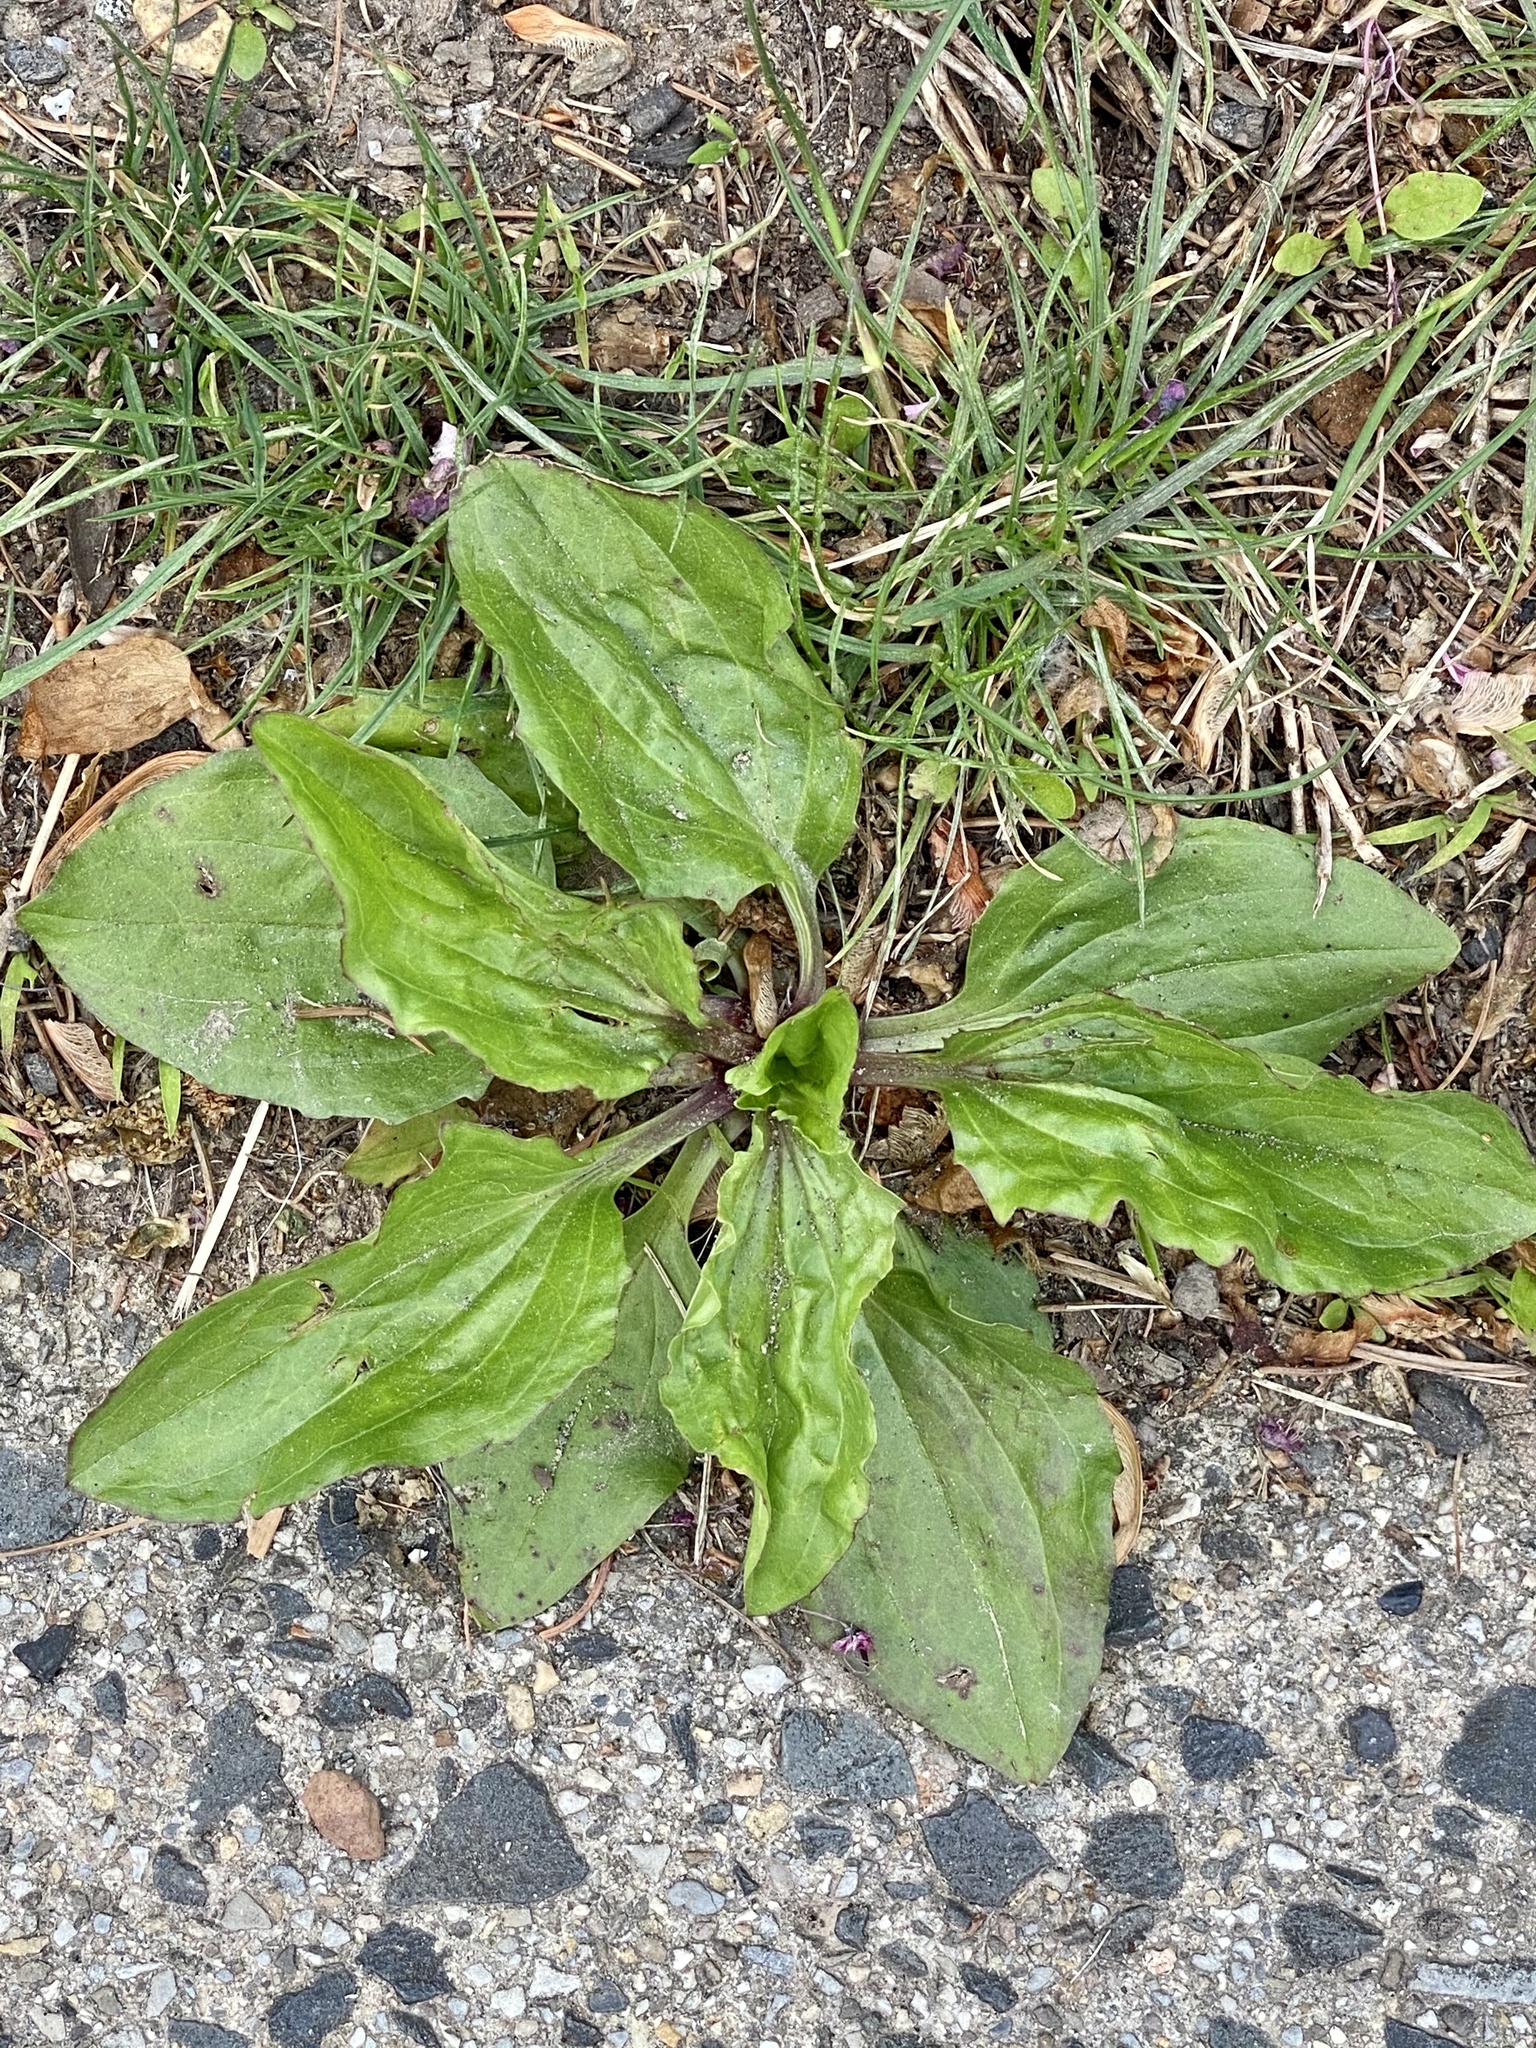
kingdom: Plantae
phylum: Tracheophyta
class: Magnoliopsida
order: Lamiales
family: Plantaginaceae
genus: Plantago
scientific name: Plantago rugelii
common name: American plantain
